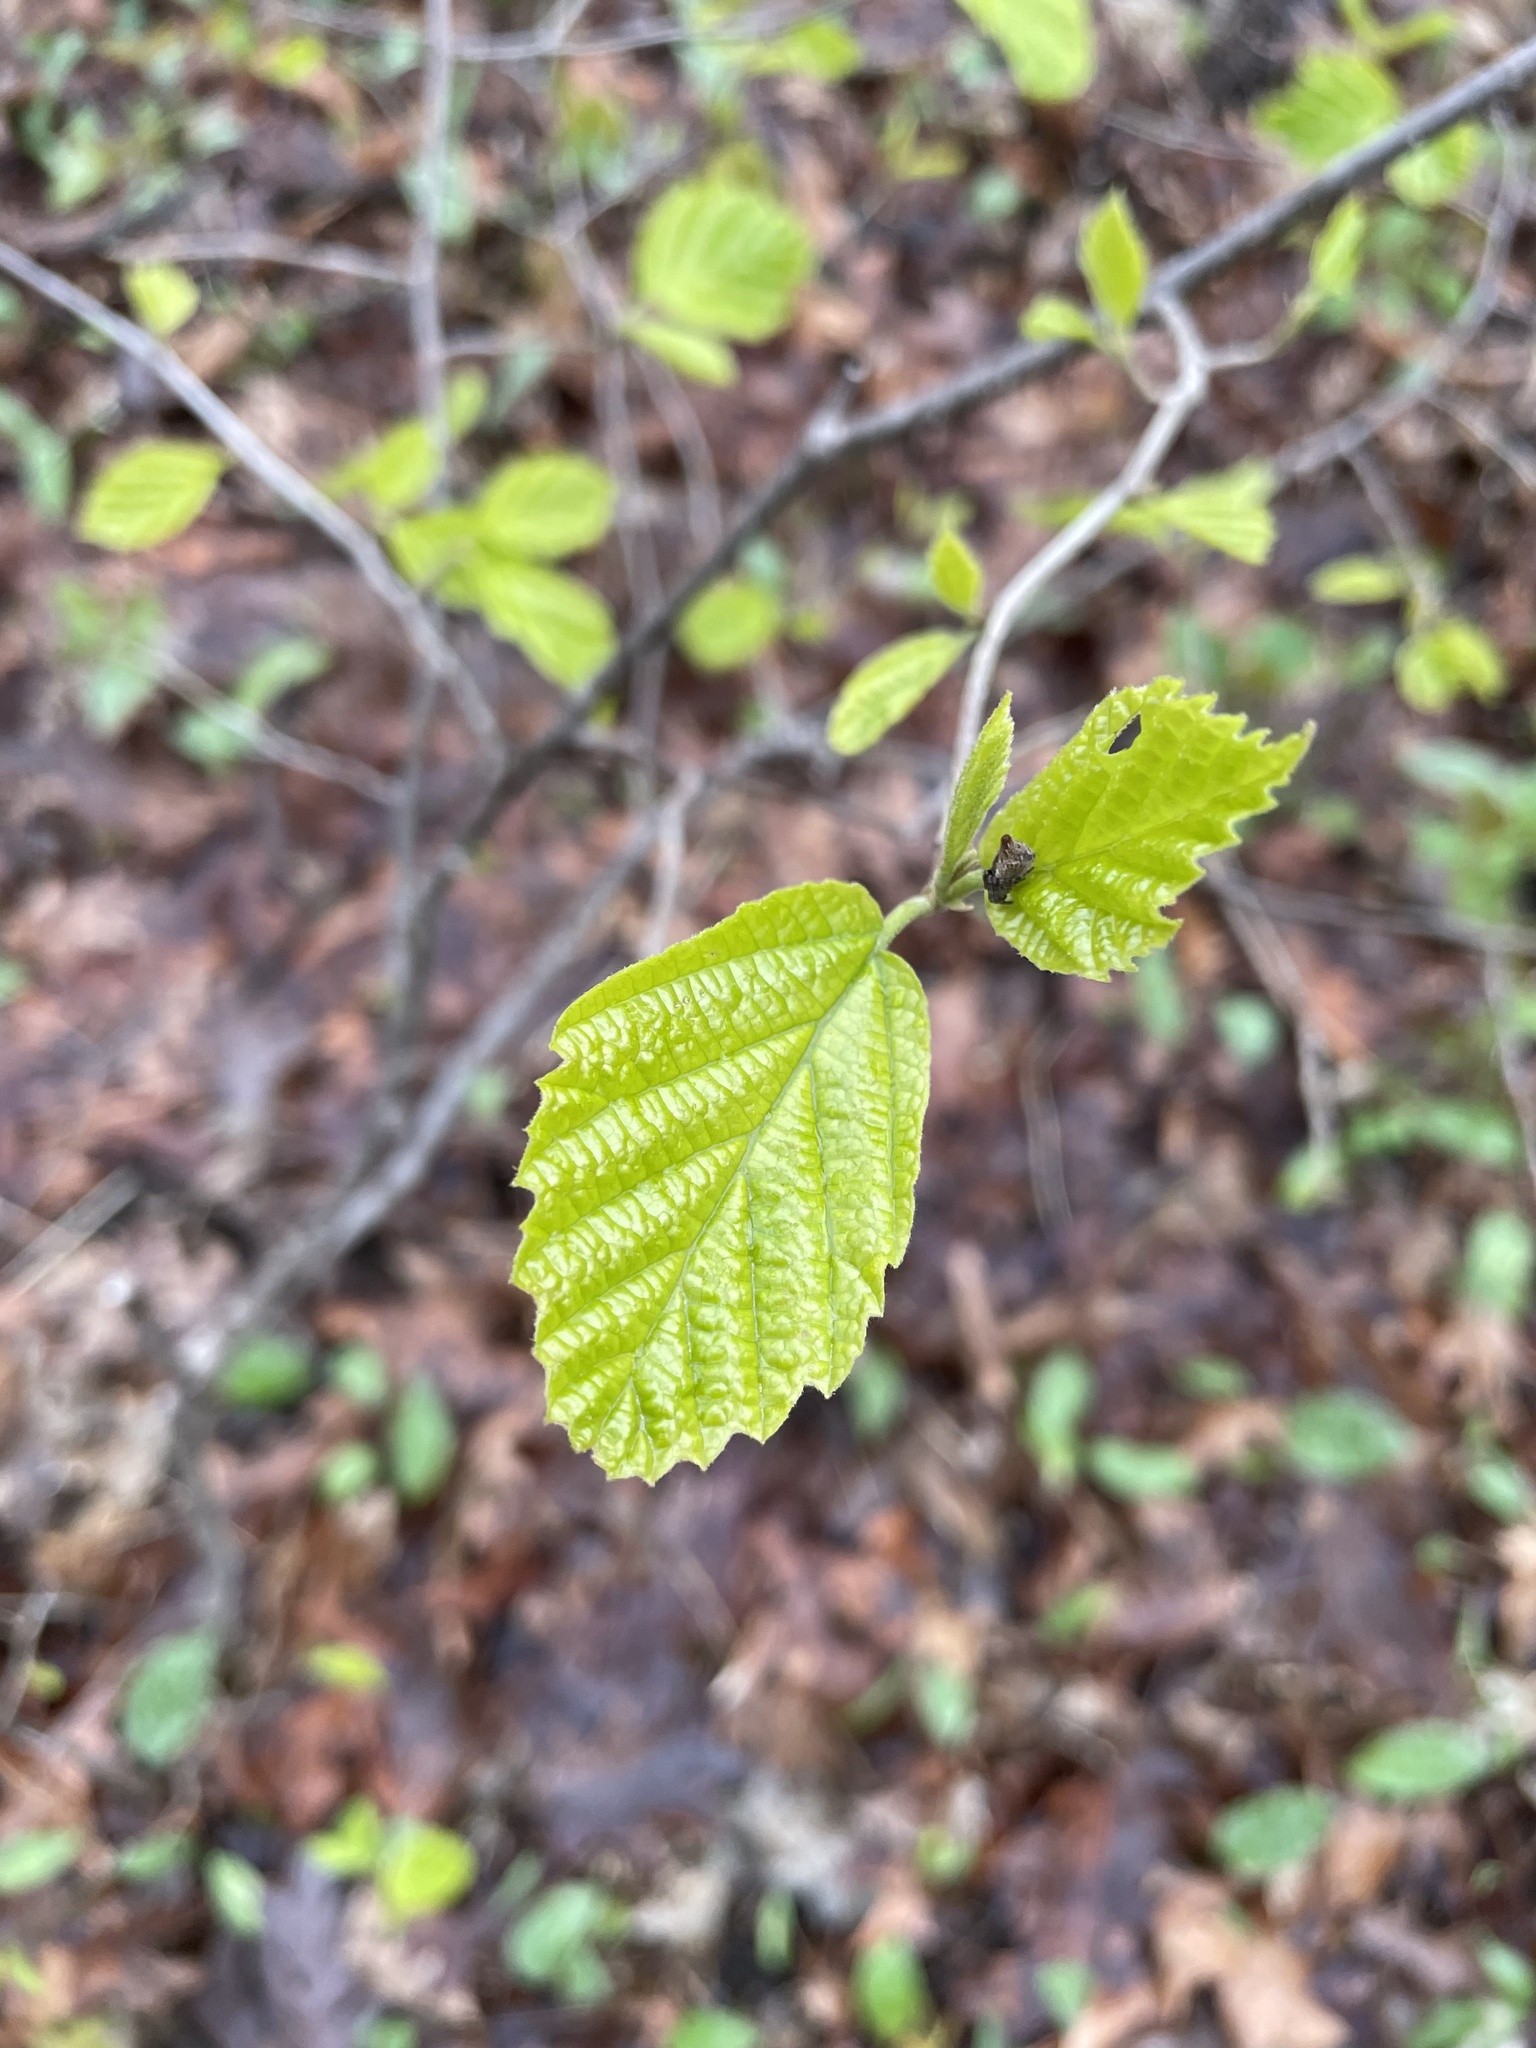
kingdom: Plantae
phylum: Tracheophyta
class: Magnoliopsida
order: Saxifragales
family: Hamamelidaceae
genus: Hamamelis
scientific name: Hamamelis virginiana
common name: Witch-hazel
